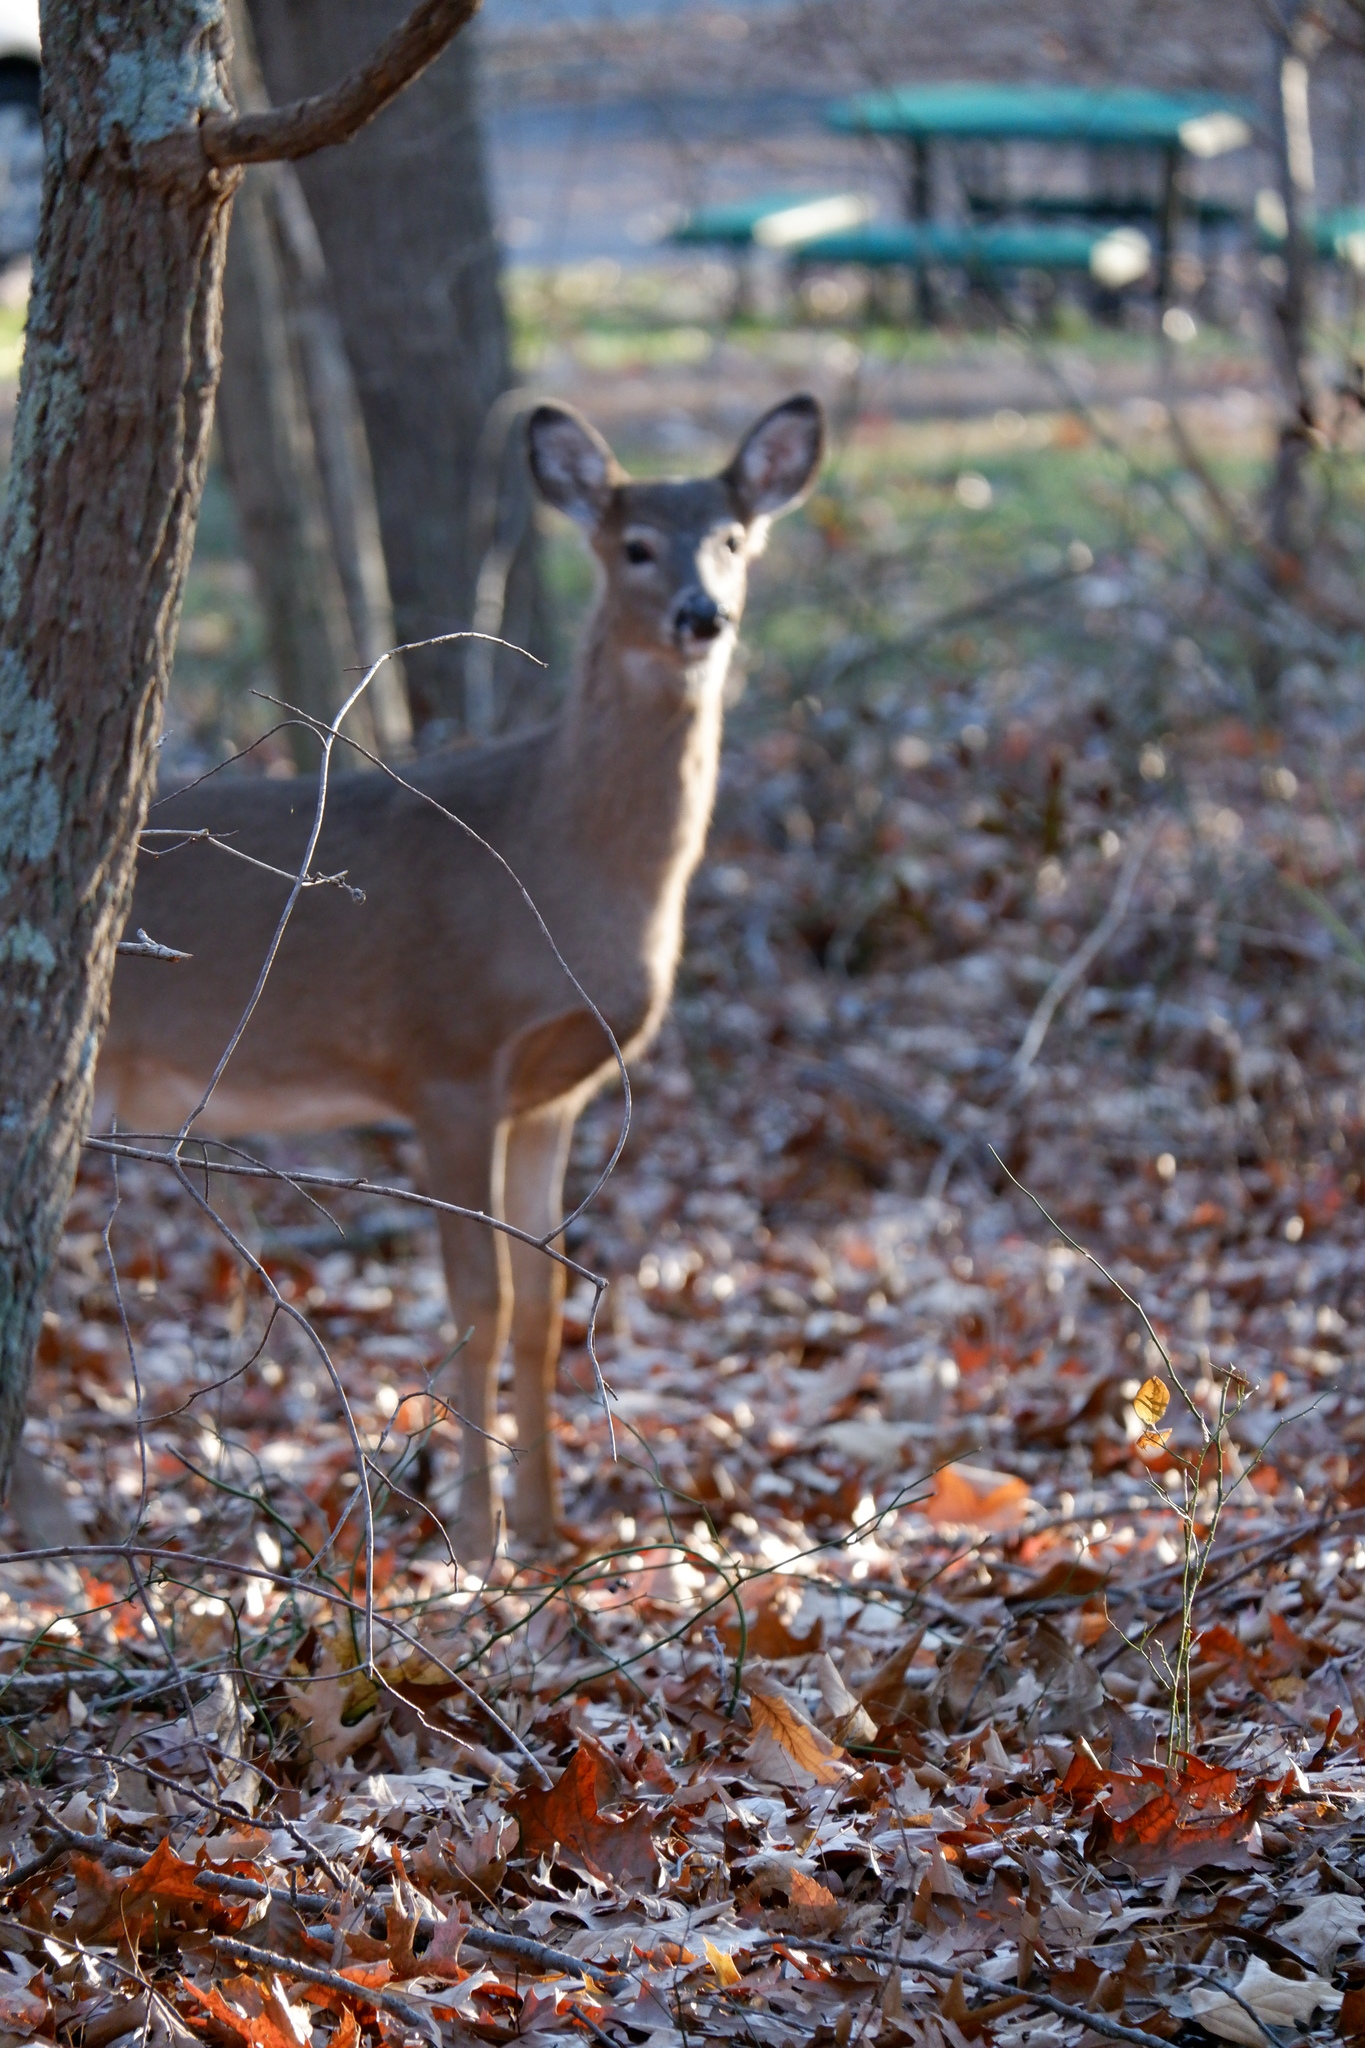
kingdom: Animalia
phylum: Chordata
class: Mammalia
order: Artiodactyla
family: Cervidae
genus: Odocoileus
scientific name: Odocoileus virginianus
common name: White-tailed deer
